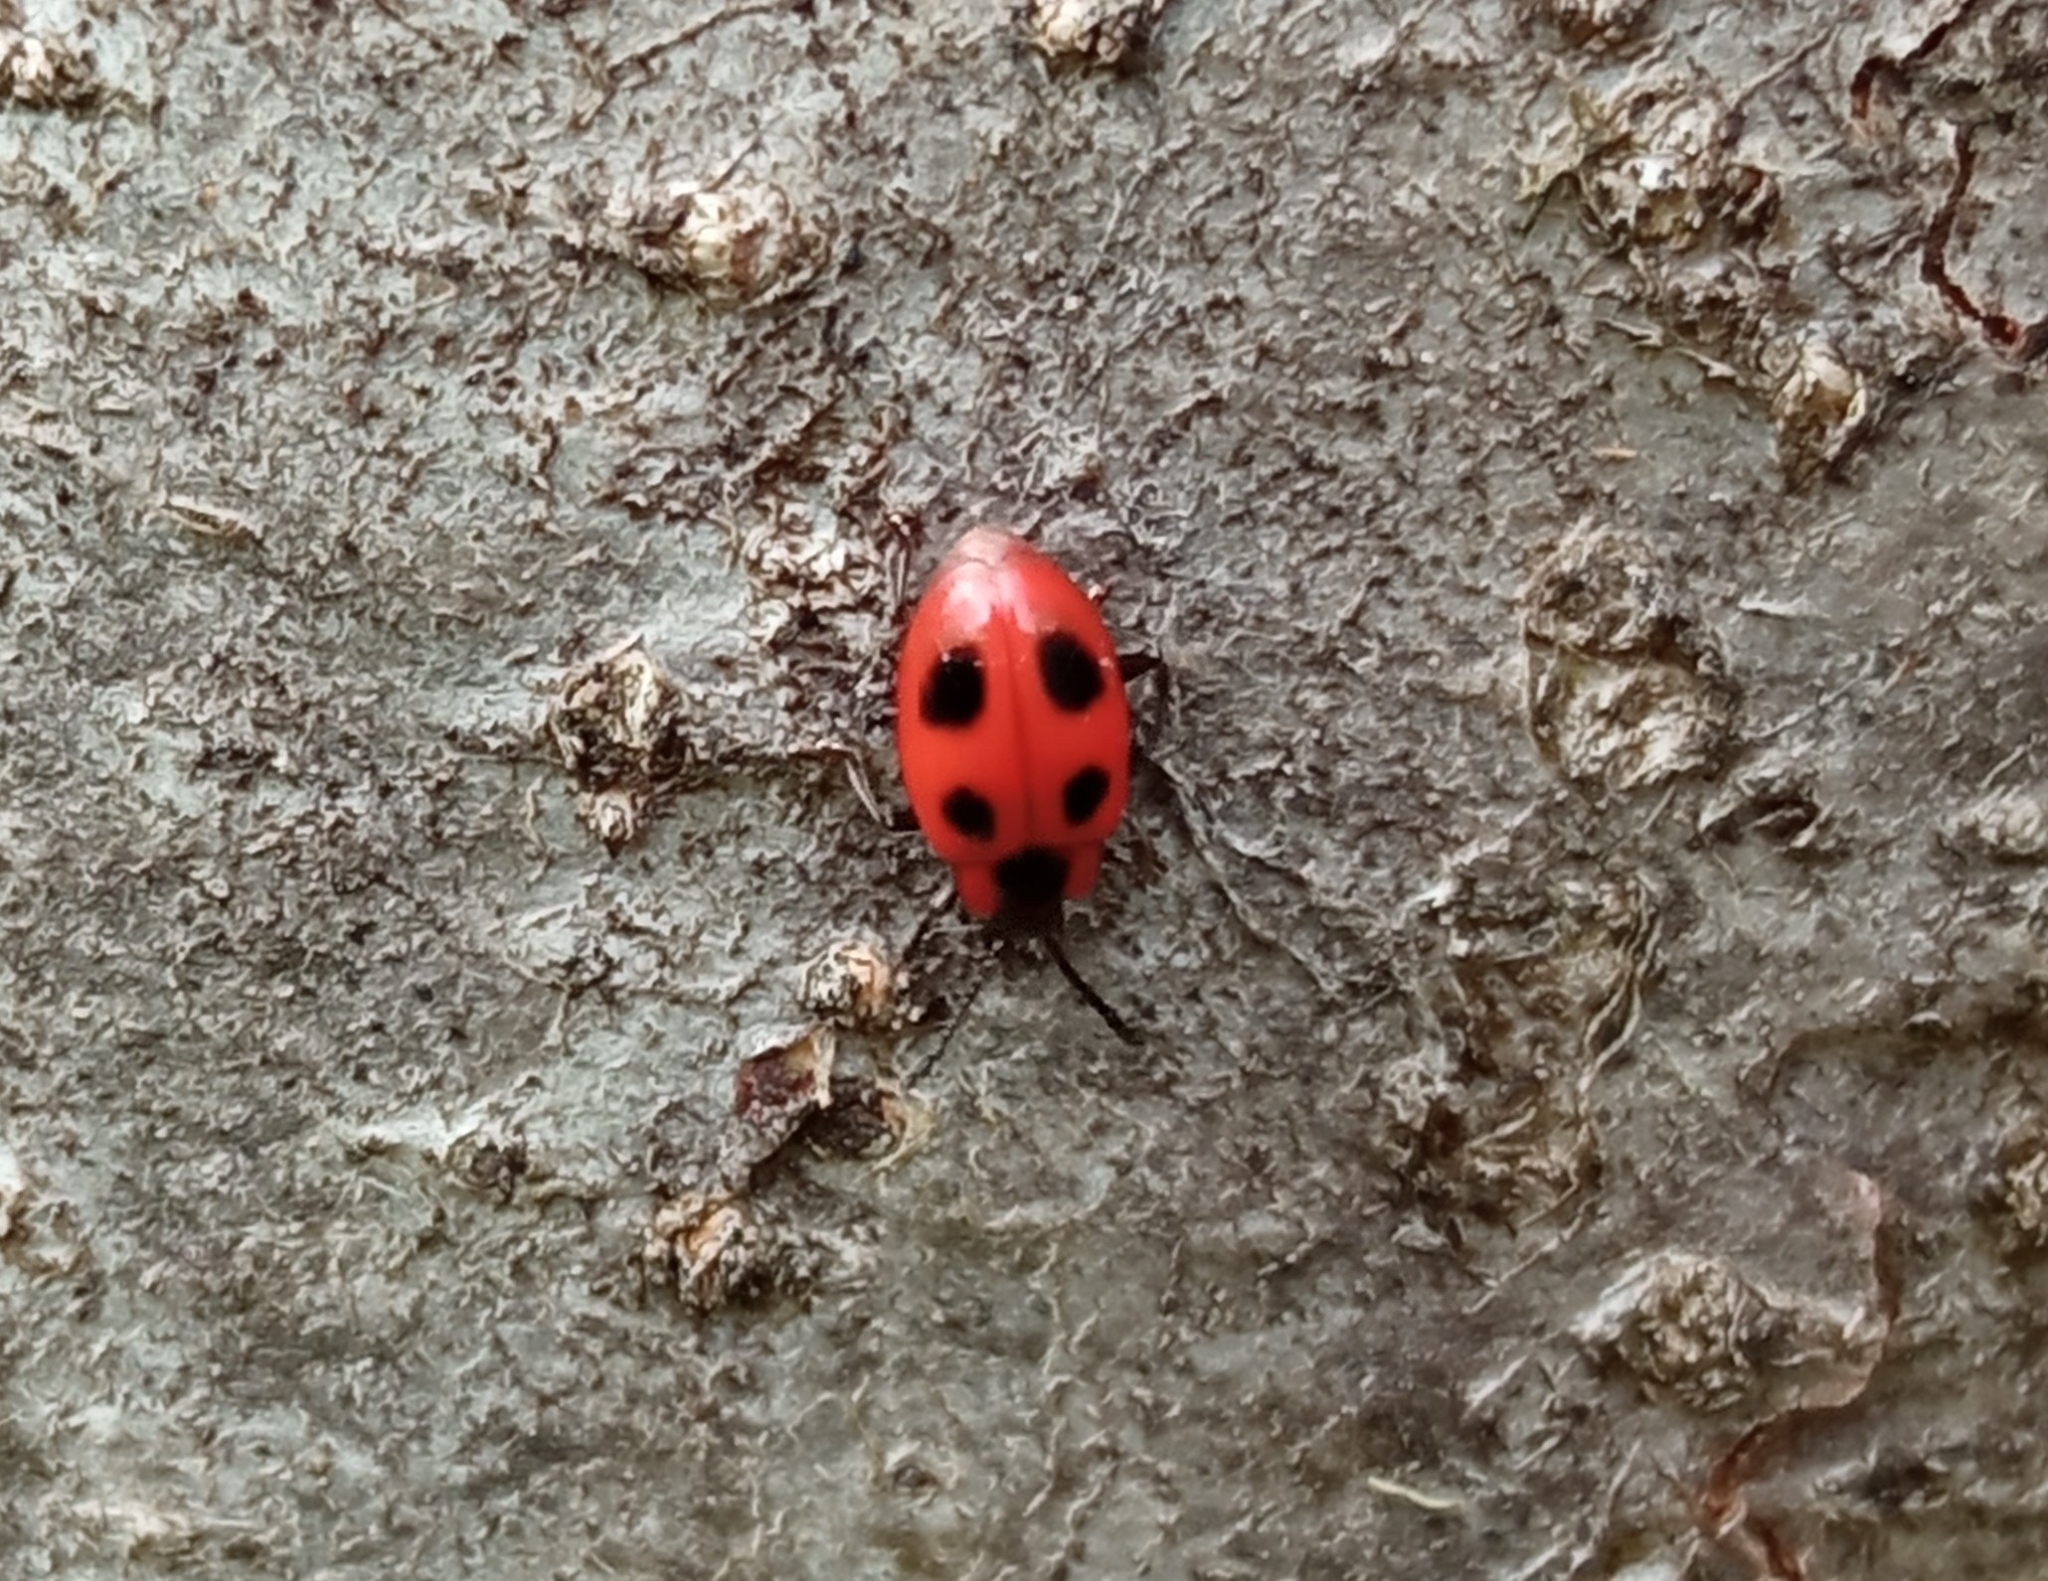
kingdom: Animalia
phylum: Arthropoda
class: Insecta
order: Coleoptera
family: Endomychidae
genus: Endomychus
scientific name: Endomychus coccineus
